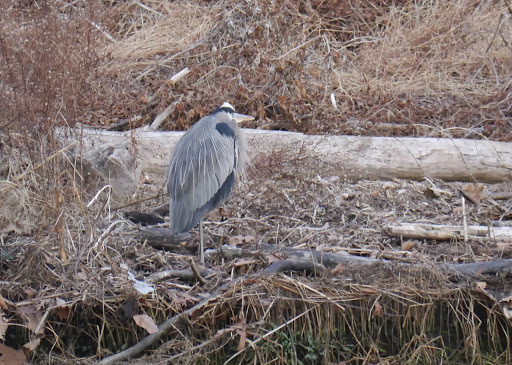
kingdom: Animalia
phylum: Chordata
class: Aves
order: Pelecaniformes
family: Ardeidae
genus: Ardea
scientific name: Ardea herodias
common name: Great blue heron
